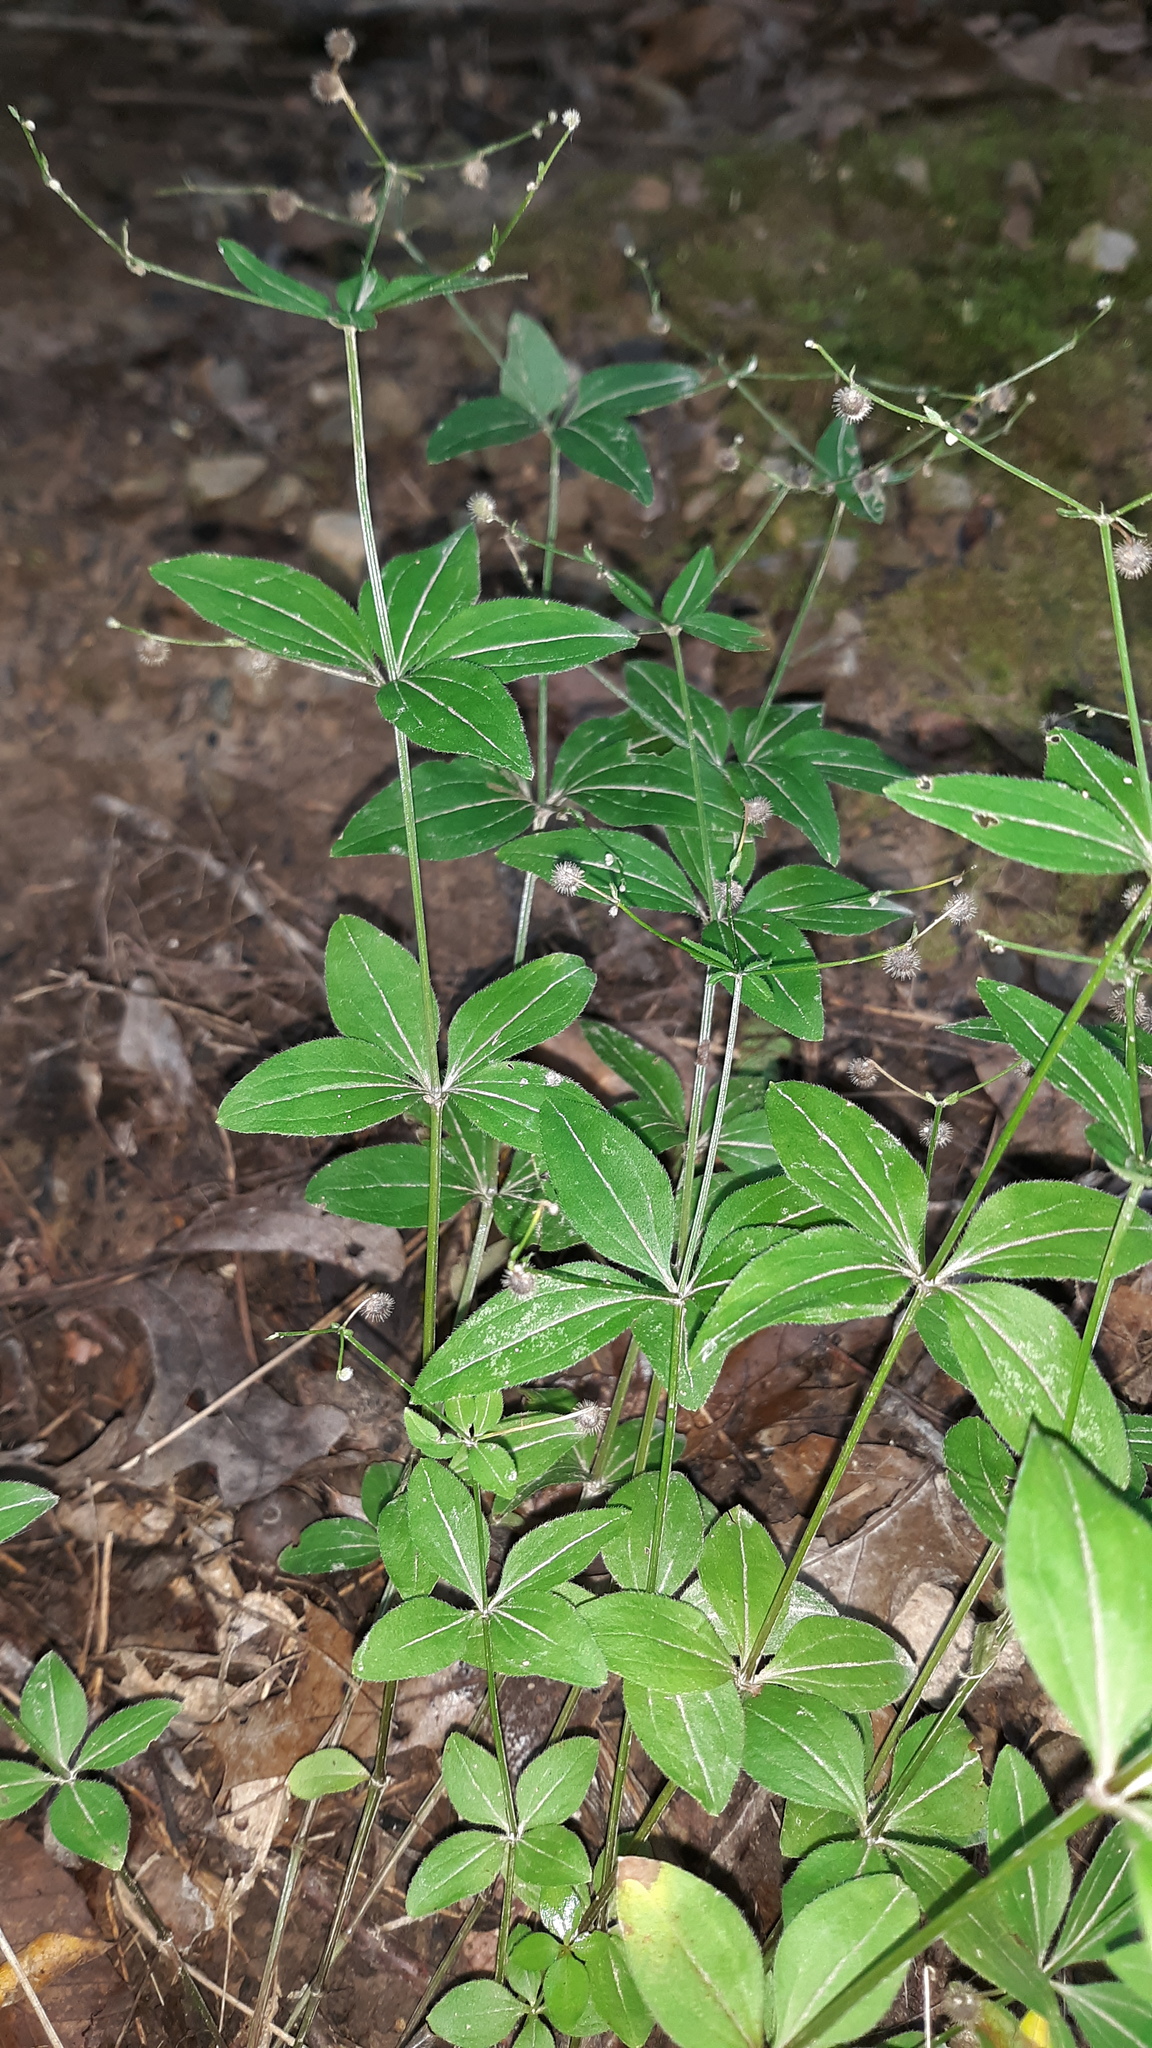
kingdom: Plantae
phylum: Tracheophyta
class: Magnoliopsida
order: Gentianales
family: Rubiaceae
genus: Galium
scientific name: Galium circaezans
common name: Forest bedstraw
